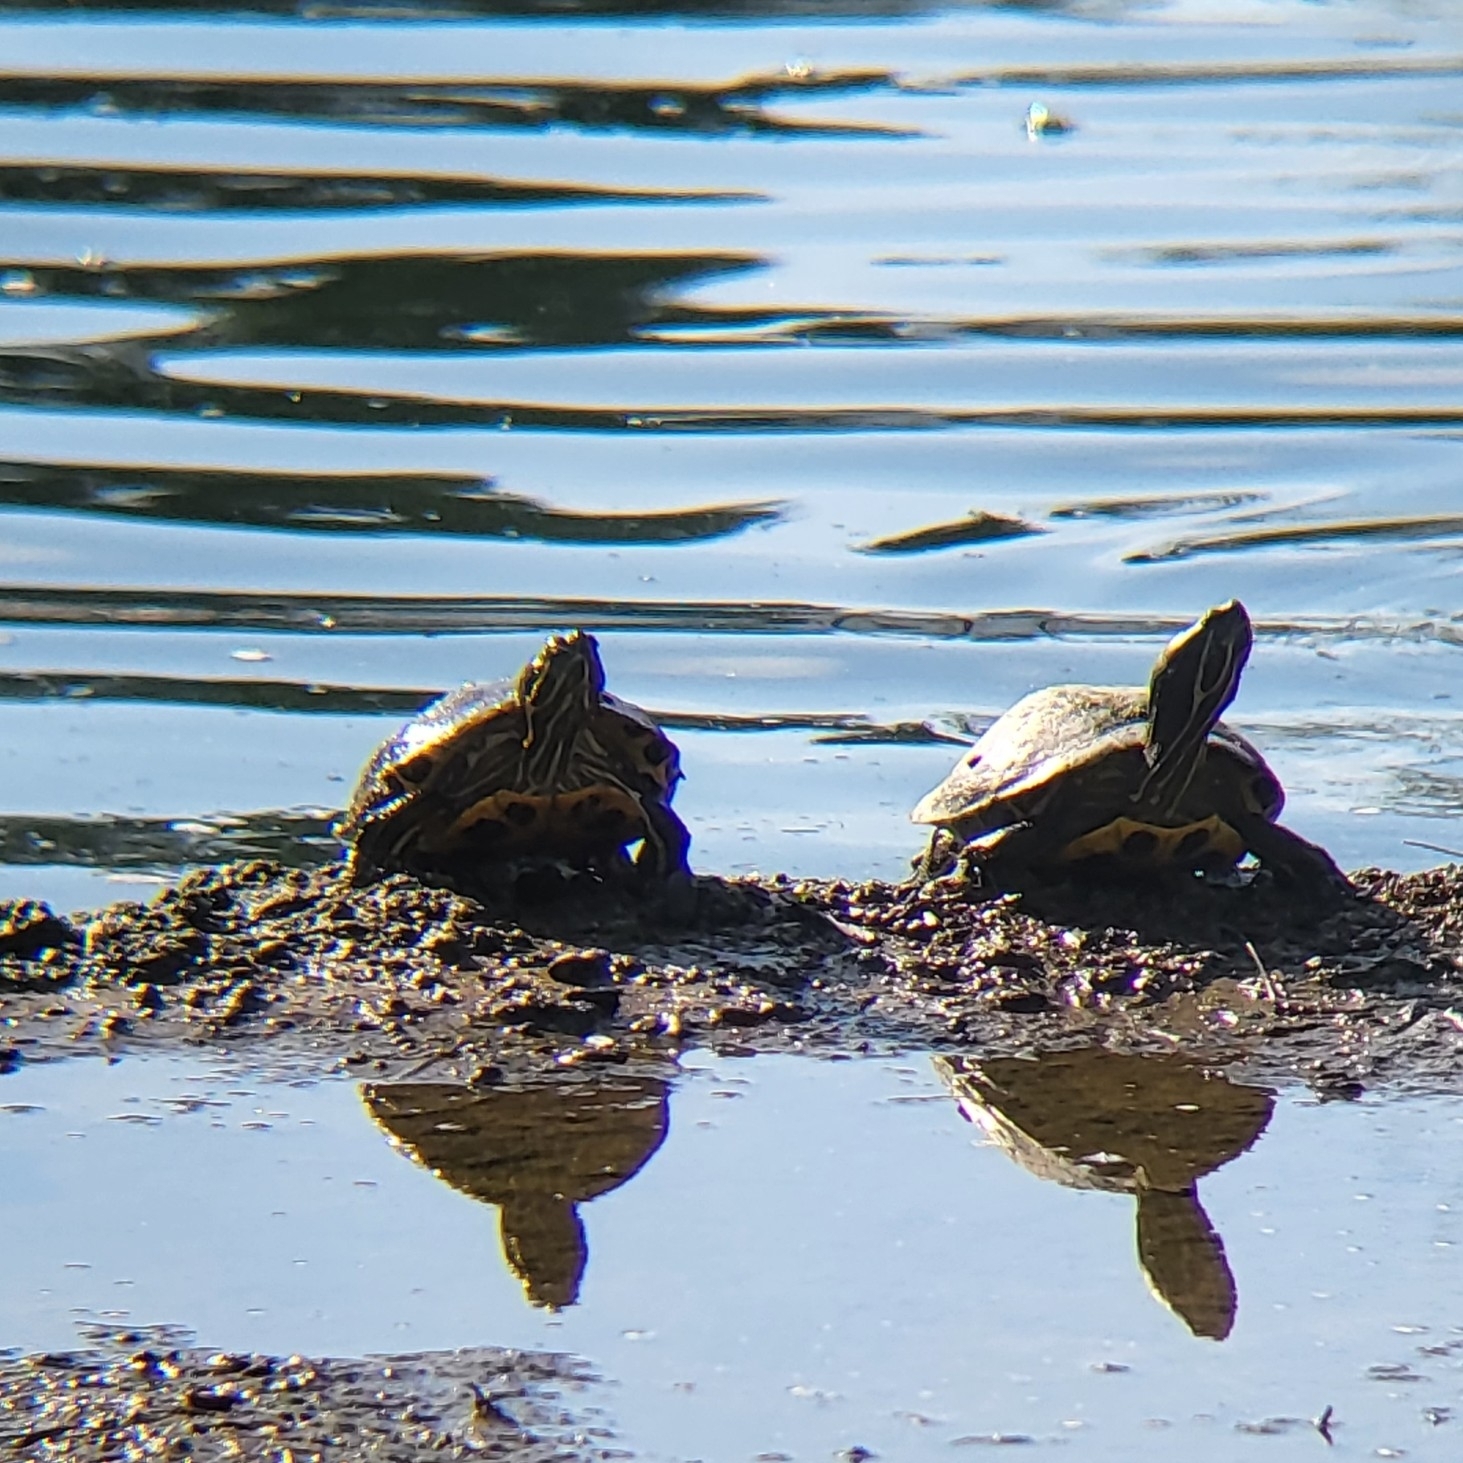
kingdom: Animalia
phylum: Chordata
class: Testudines
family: Emydidae
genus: Trachemys
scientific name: Trachemys scripta
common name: Slider
